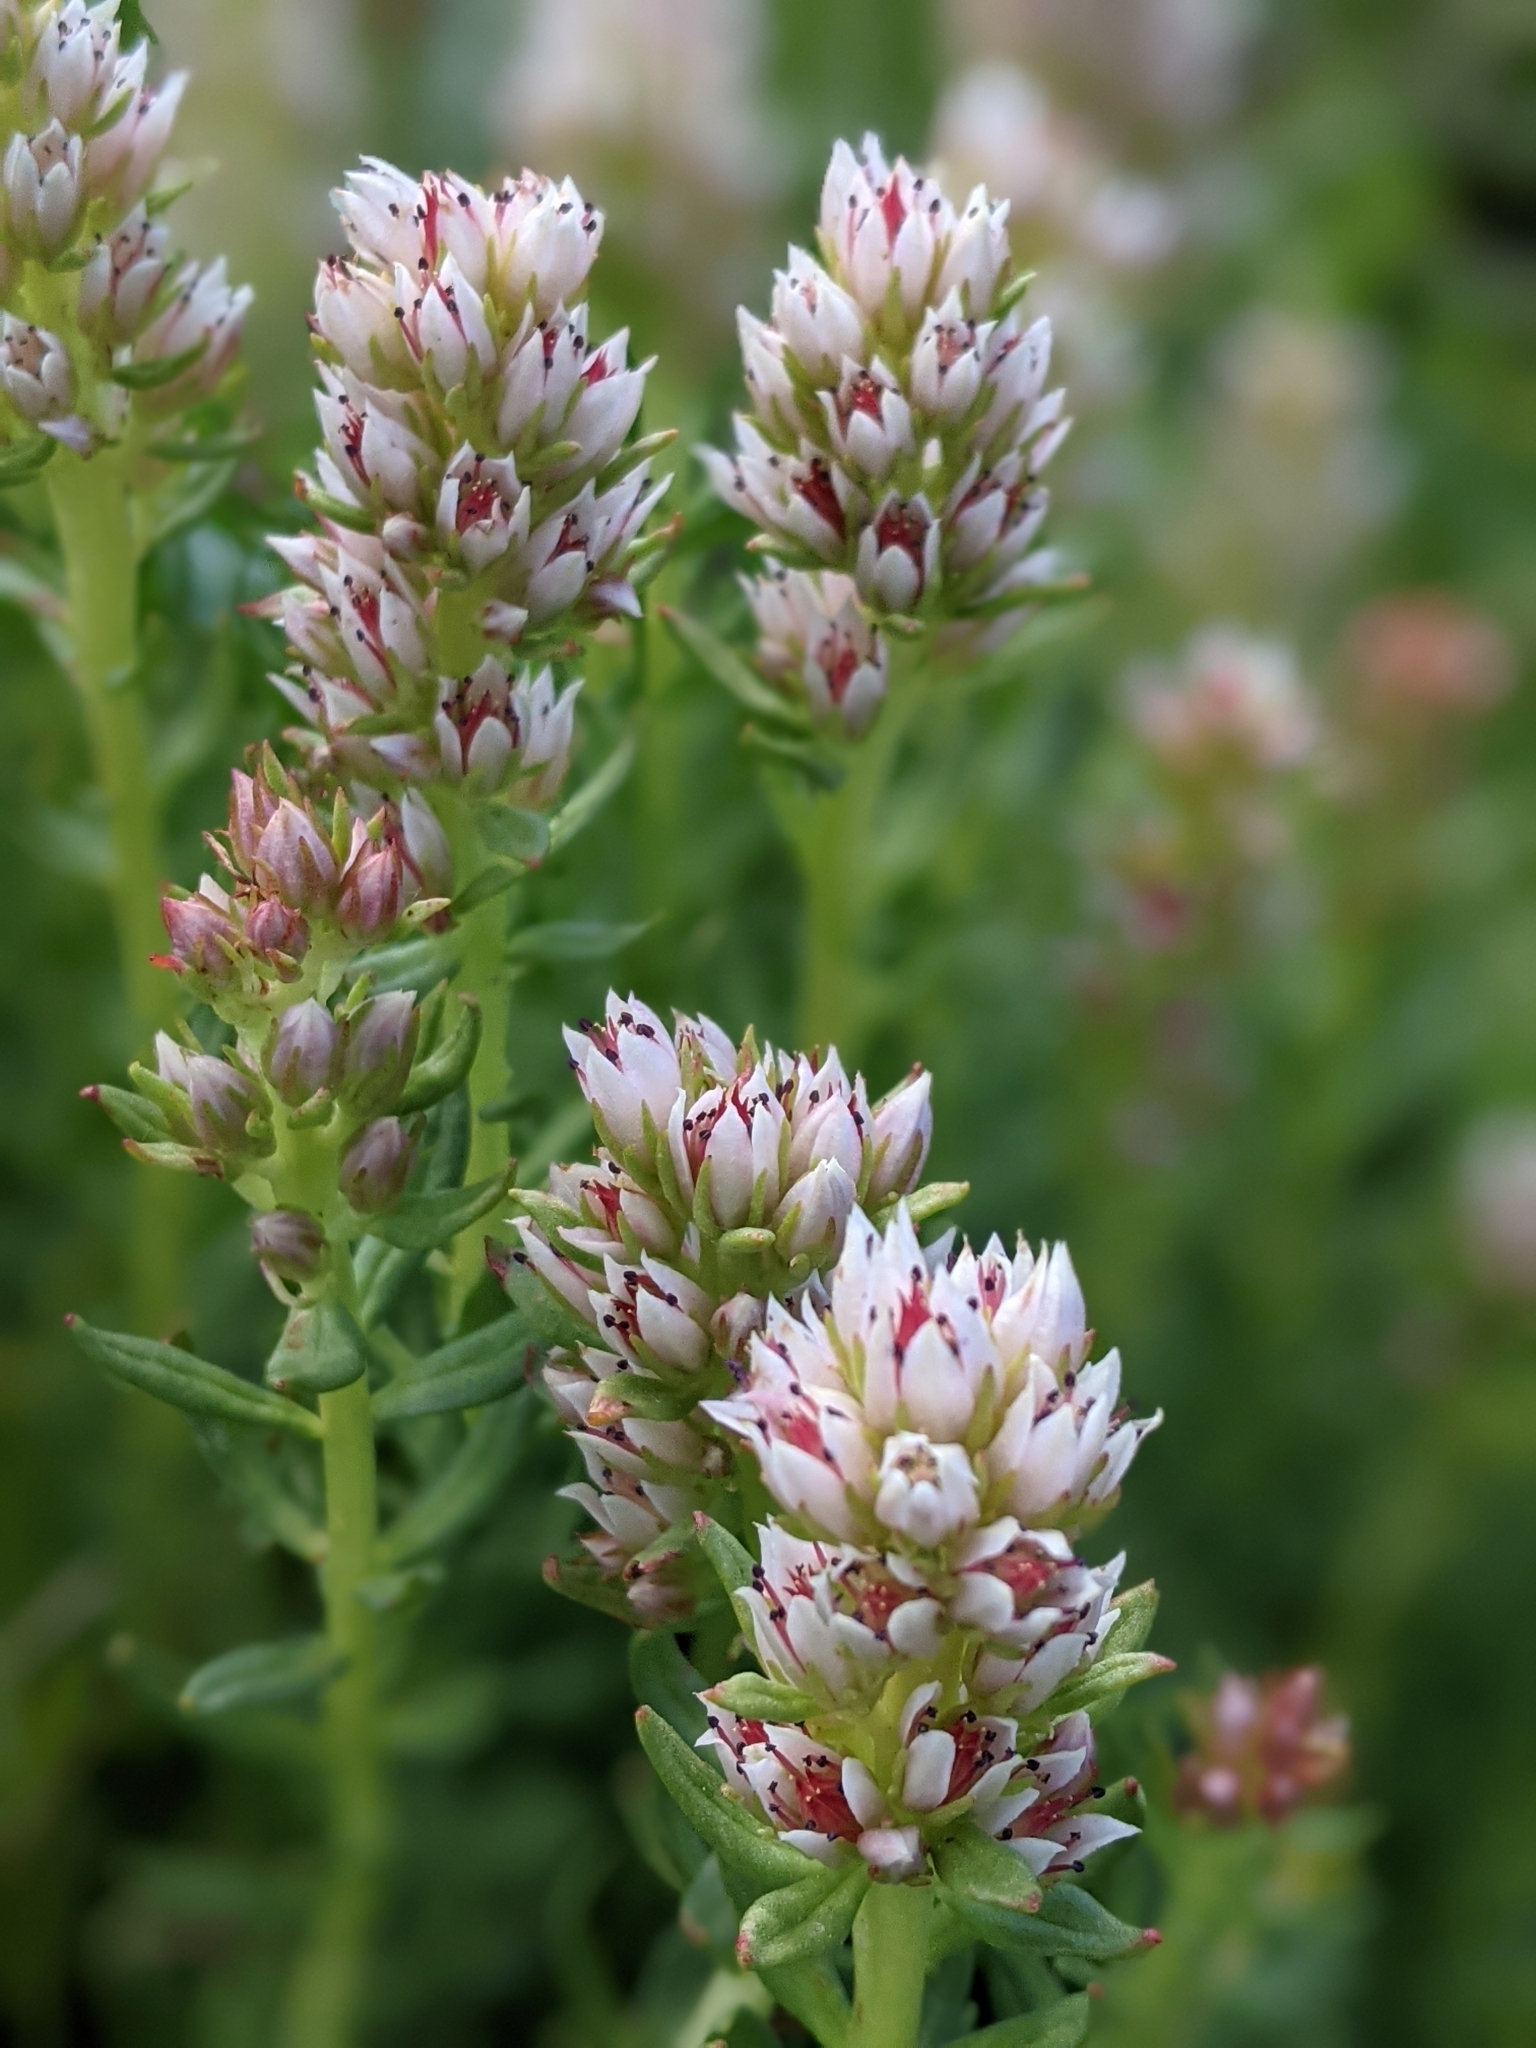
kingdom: Plantae
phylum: Tracheophyta
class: Magnoliopsida
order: Saxifragales
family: Crassulaceae
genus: Rhodiola
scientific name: Rhodiola rhodantha
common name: Red orpine
